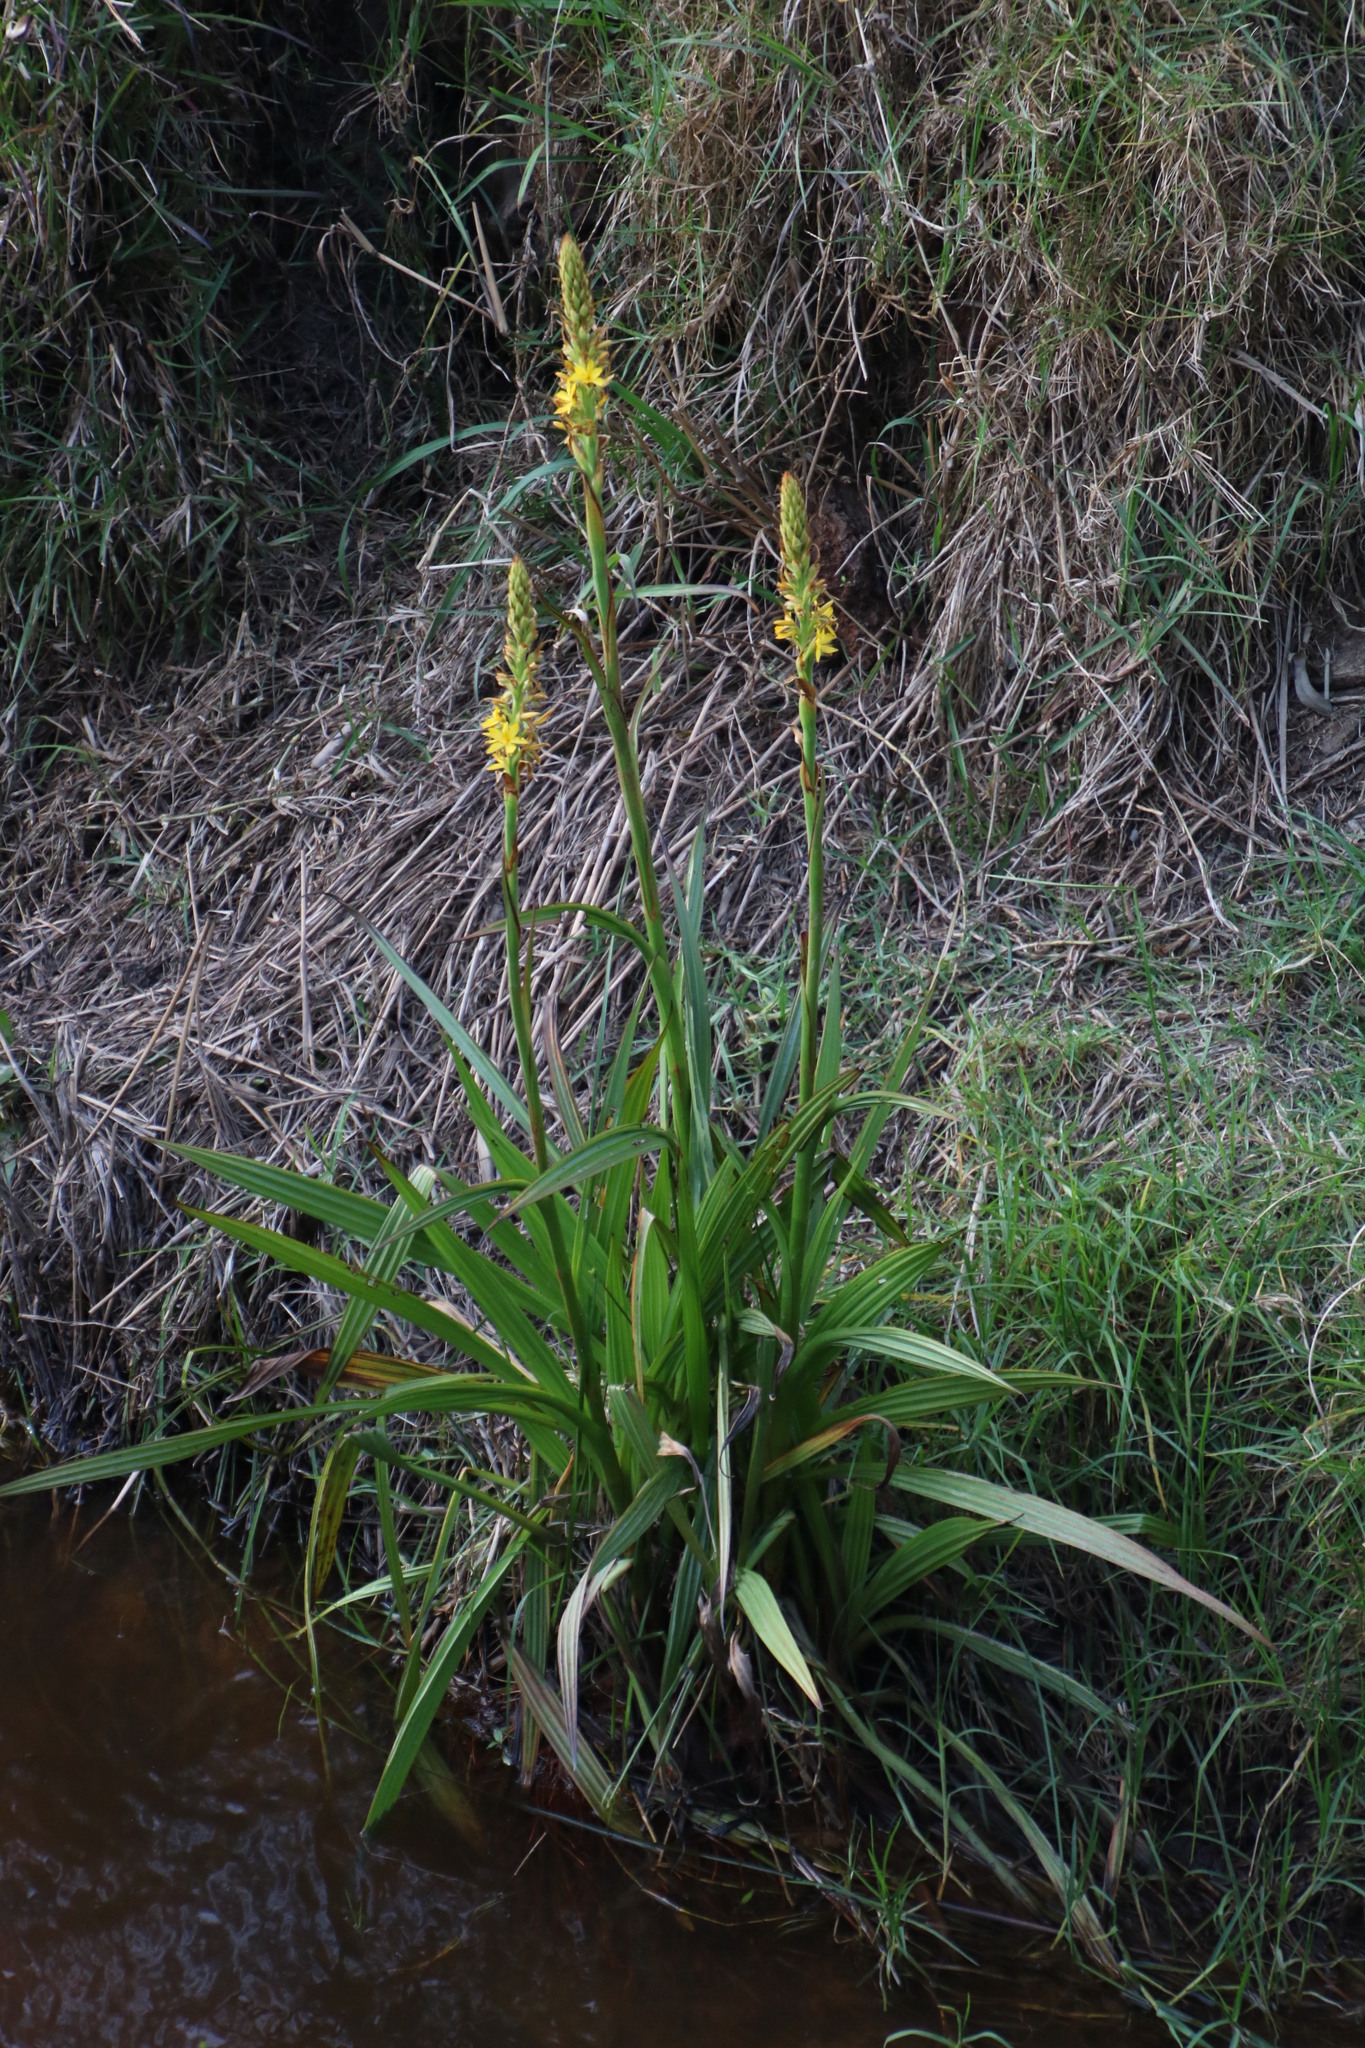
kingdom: Plantae
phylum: Tracheophyta
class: Liliopsida
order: Commelinales
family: Haemodoraceae
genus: Wachendorfia
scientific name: Wachendorfia thyrsiflora
